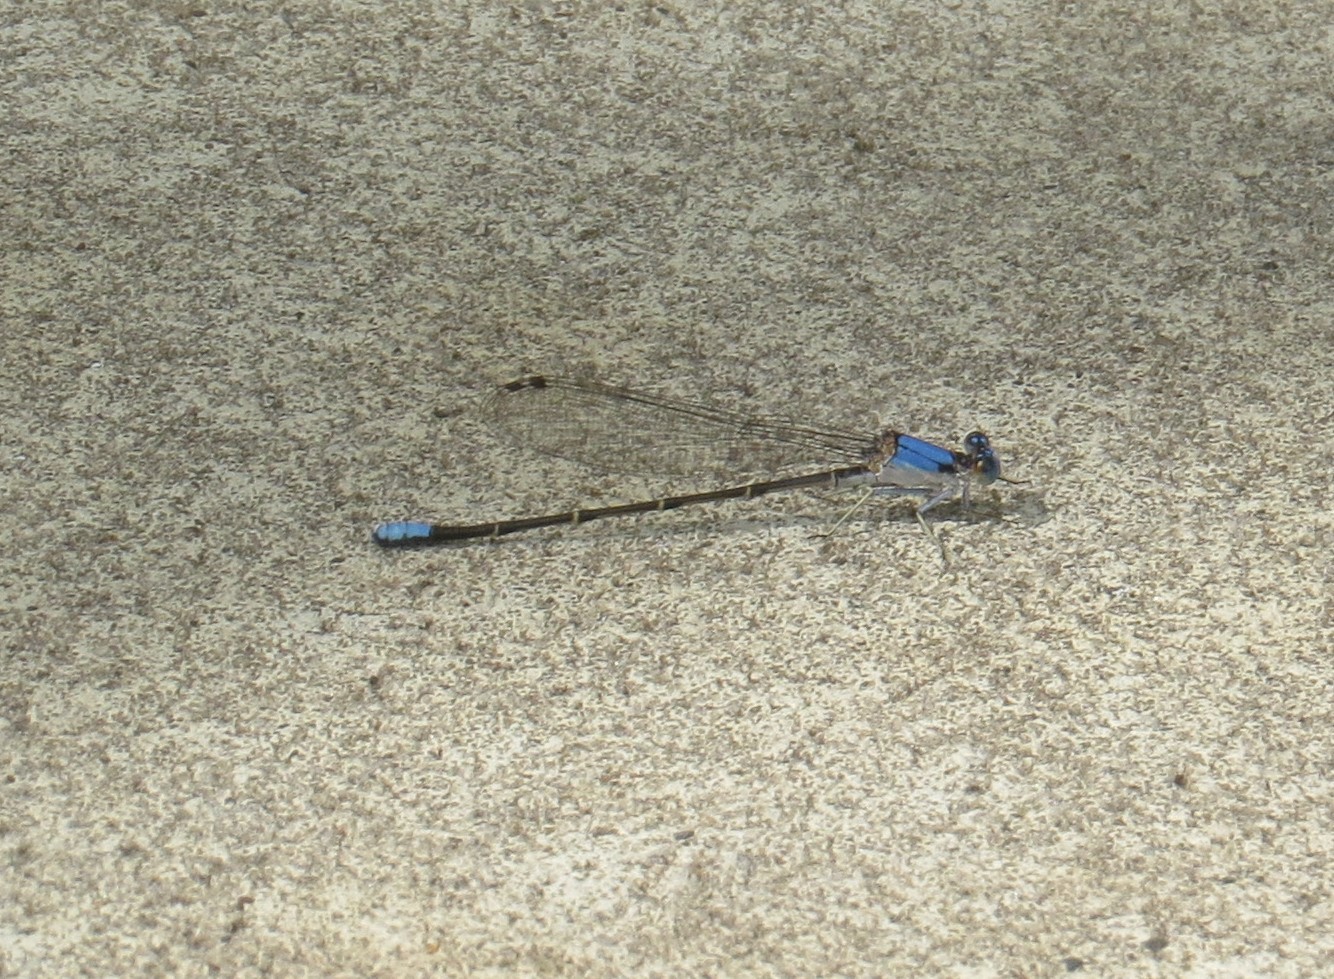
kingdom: Animalia
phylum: Arthropoda
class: Insecta
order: Odonata
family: Coenagrionidae
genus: Argia
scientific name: Argia apicalis
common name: Blue-fronted dancer
